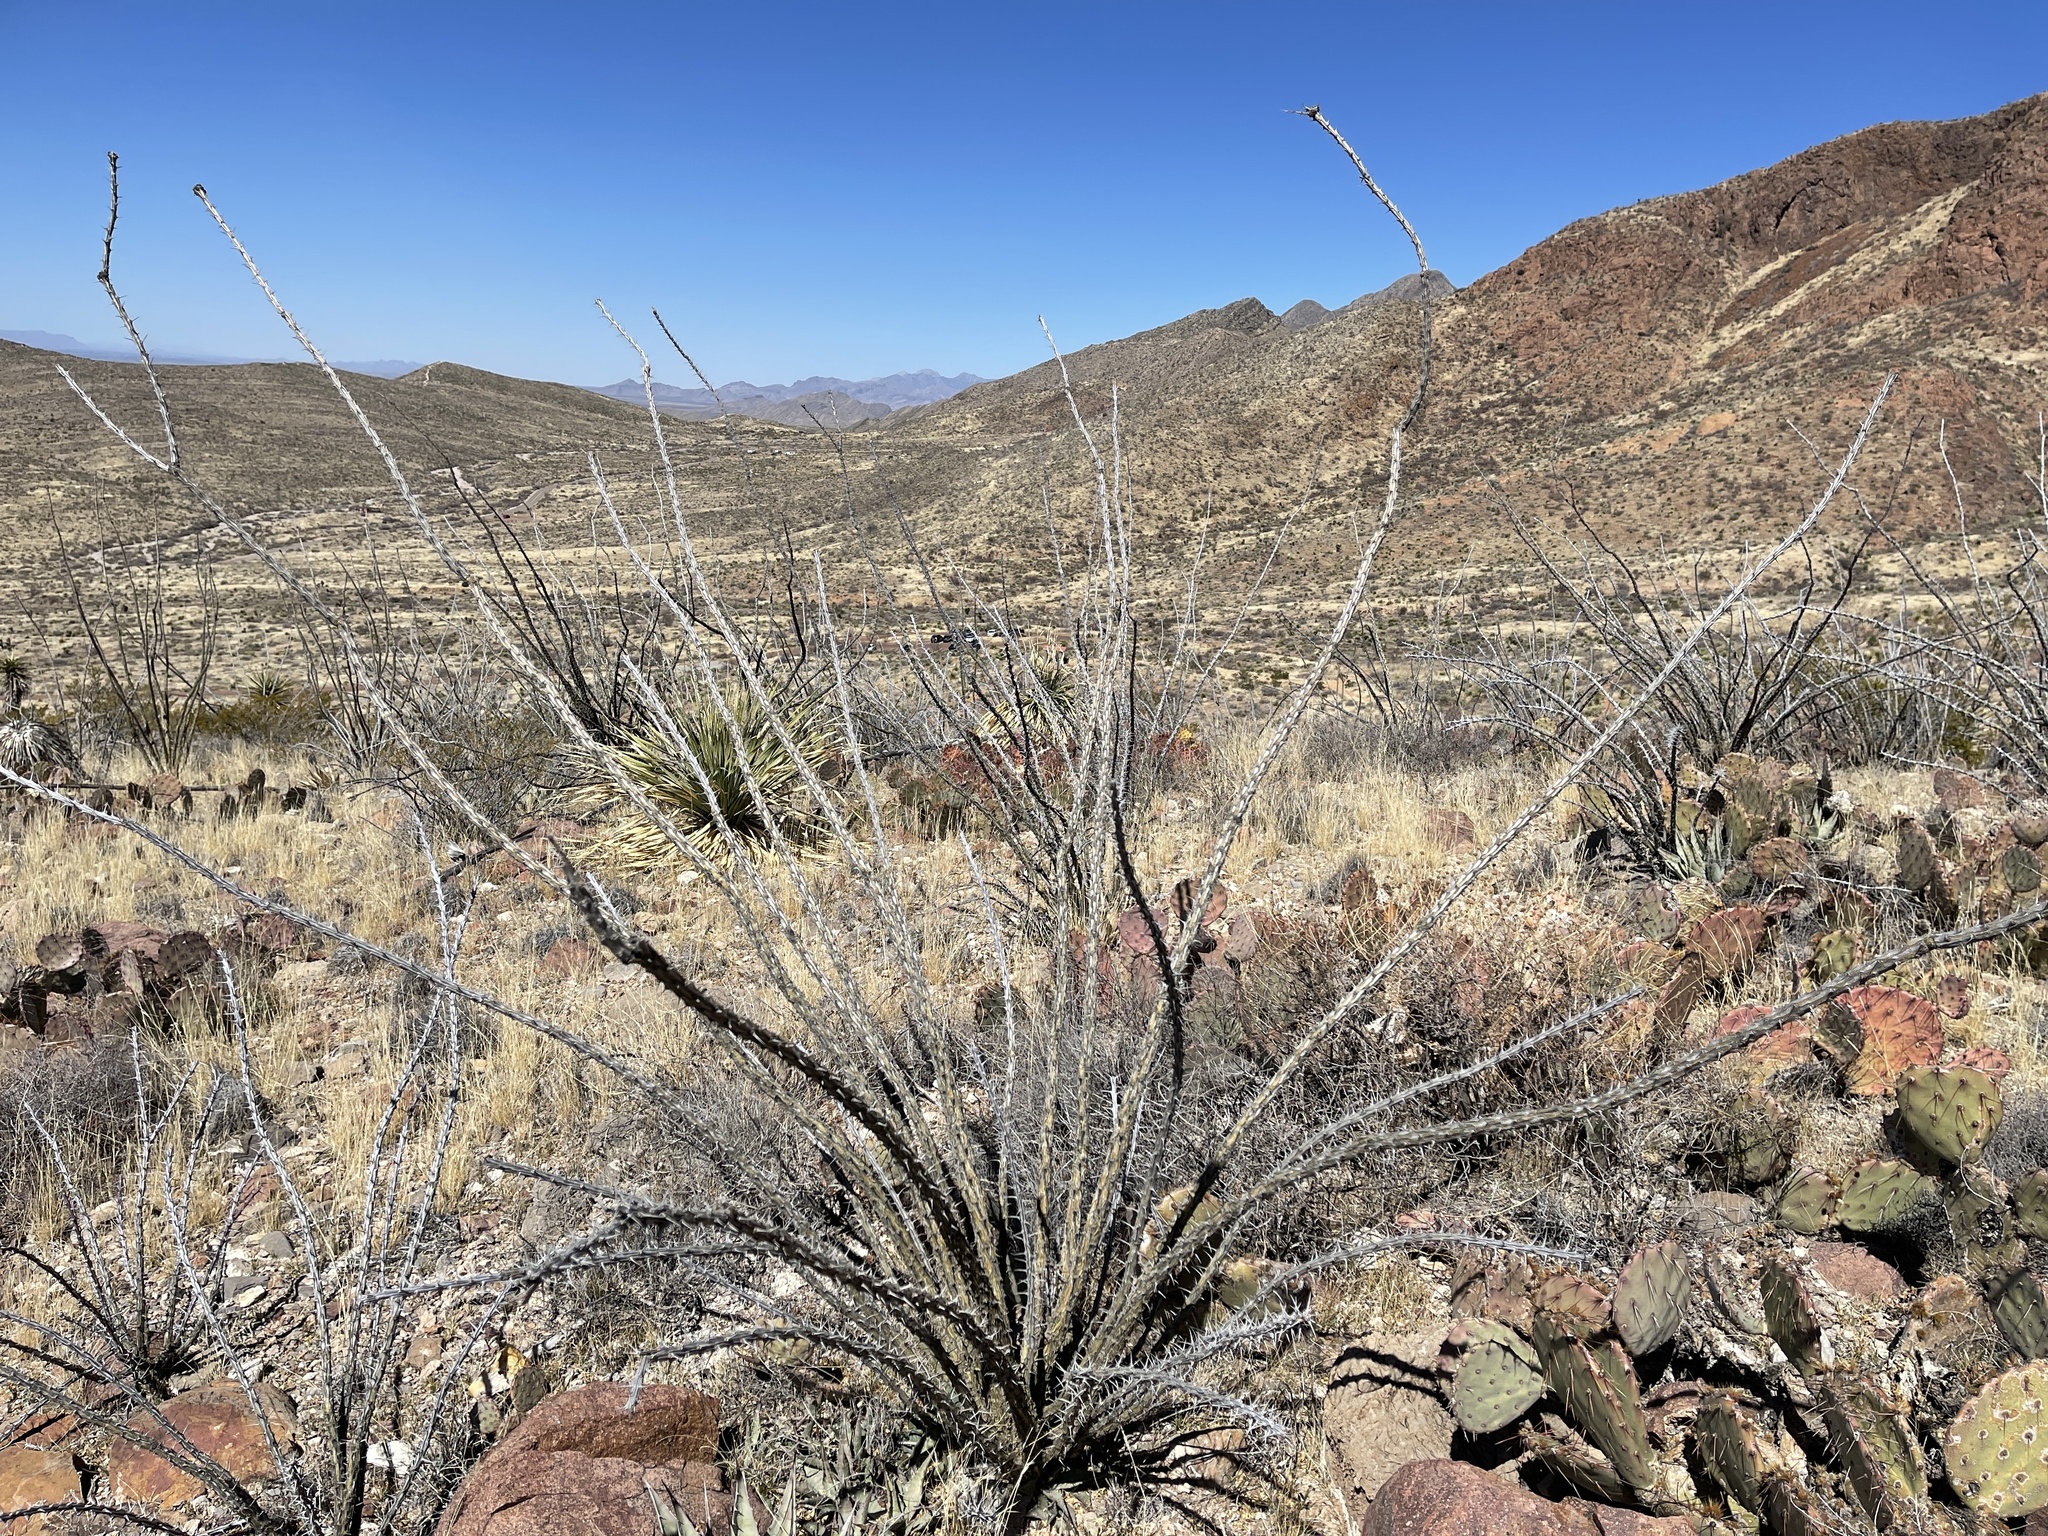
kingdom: Plantae
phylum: Tracheophyta
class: Magnoliopsida
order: Ericales
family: Fouquieriaceae
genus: Fouquieria
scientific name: Fouquieria splendens
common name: Vine-cactus
